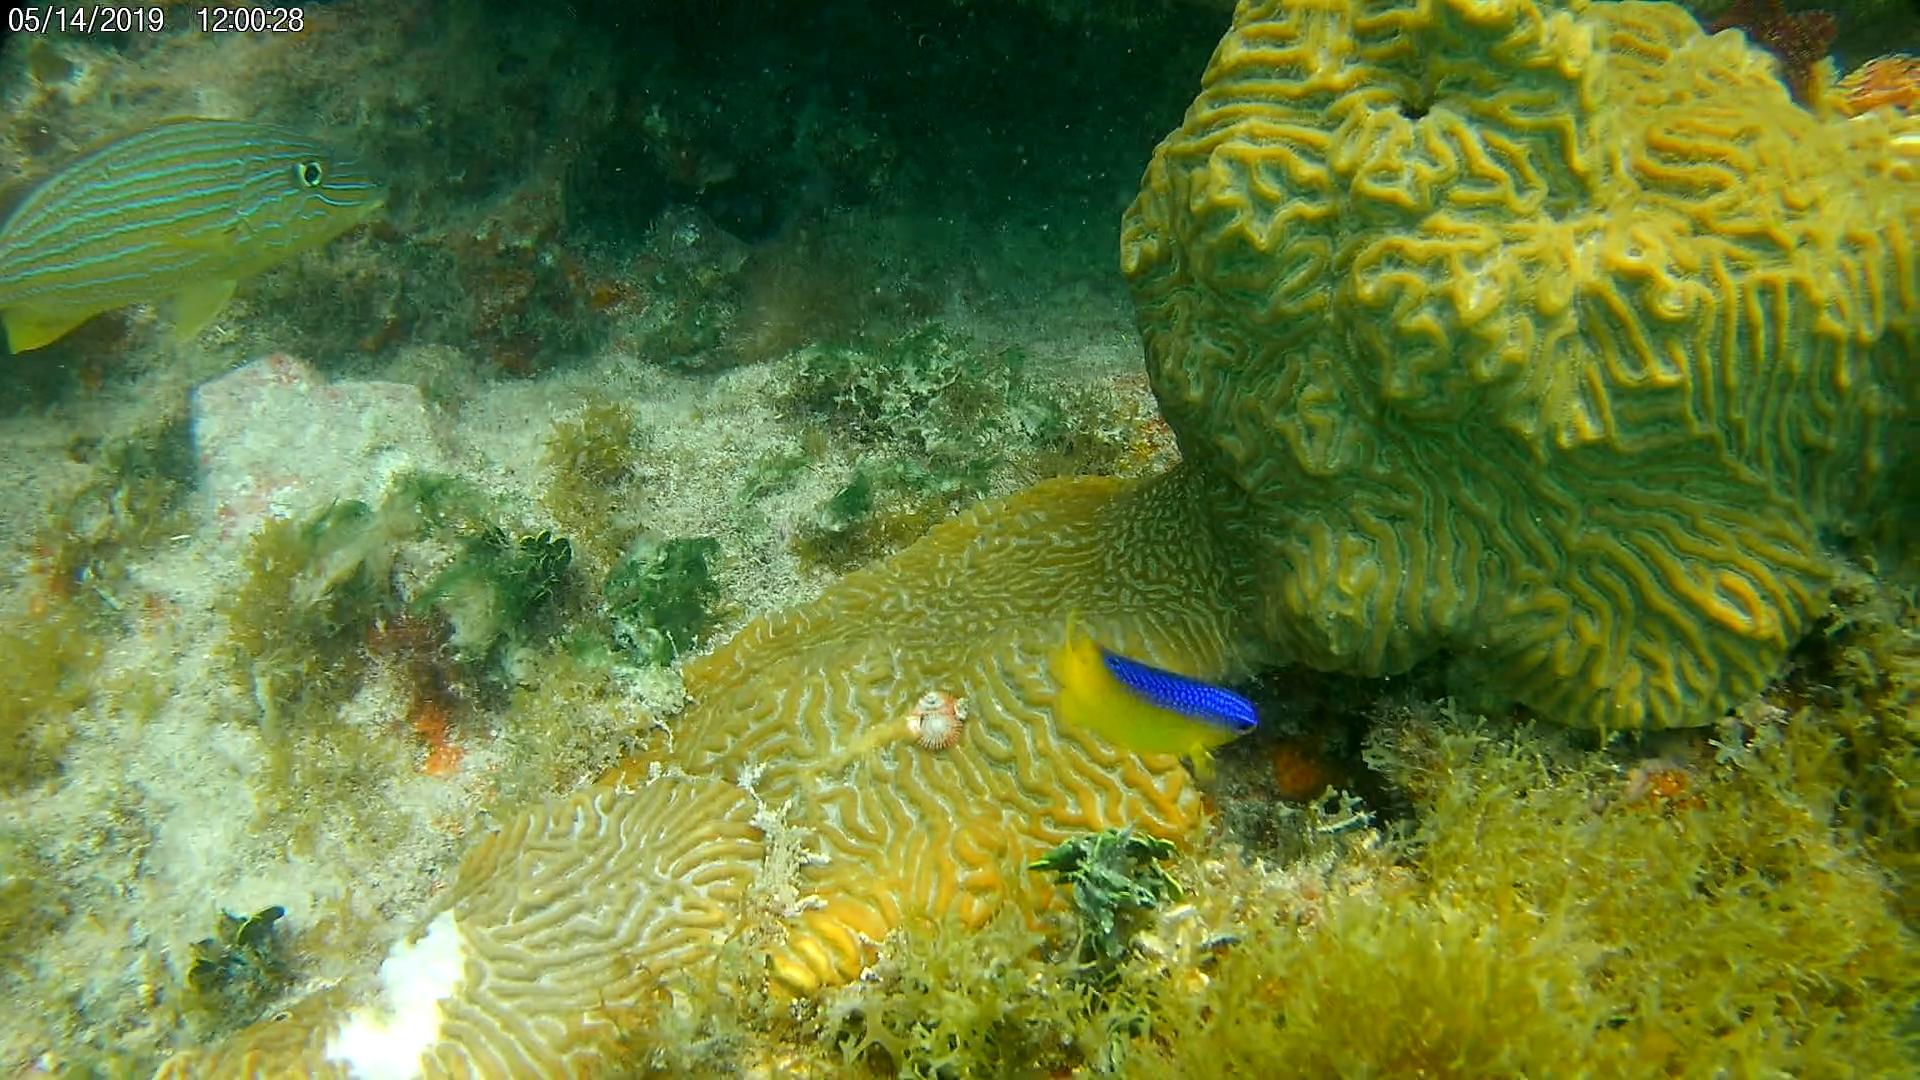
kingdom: Animalia
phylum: Chordata
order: Perciformes
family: Pomacentridae
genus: Stegastes
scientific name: Stegastes leucostictus
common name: Beaugregory
